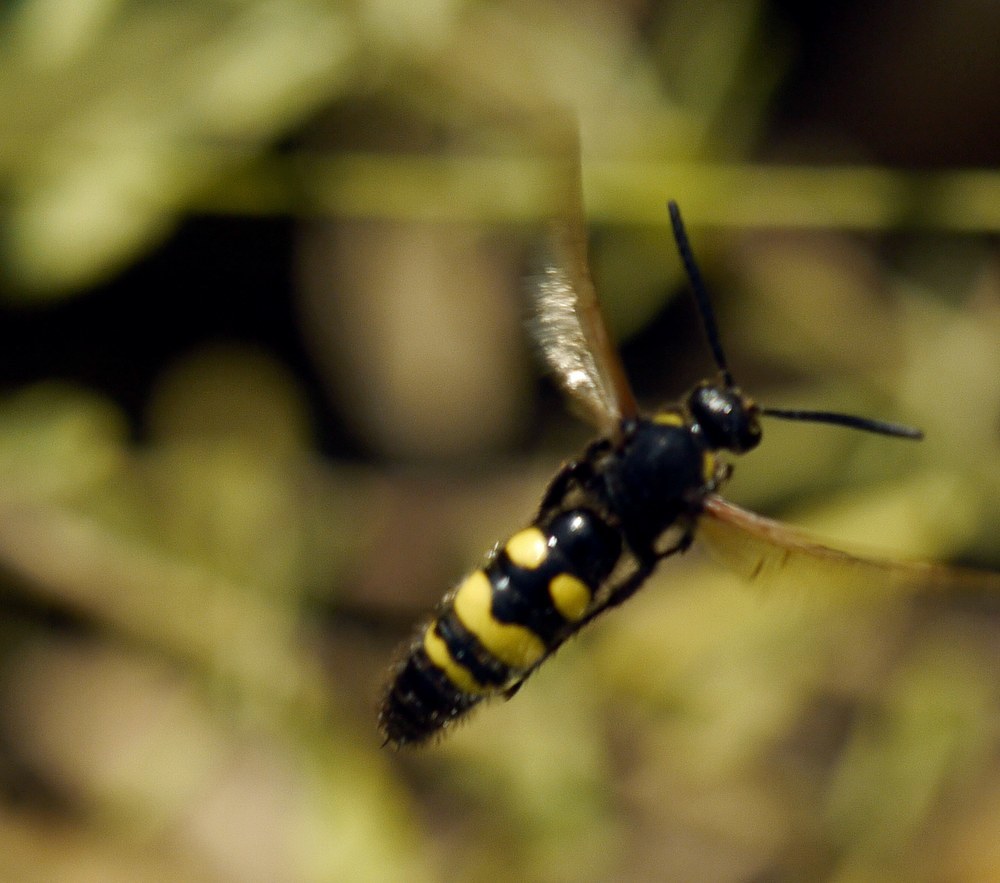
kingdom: Animalia
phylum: Arthropoda
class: Insecta
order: Hymenoptera
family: Scoliidae
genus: Scolia
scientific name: Scolia fuciformis
